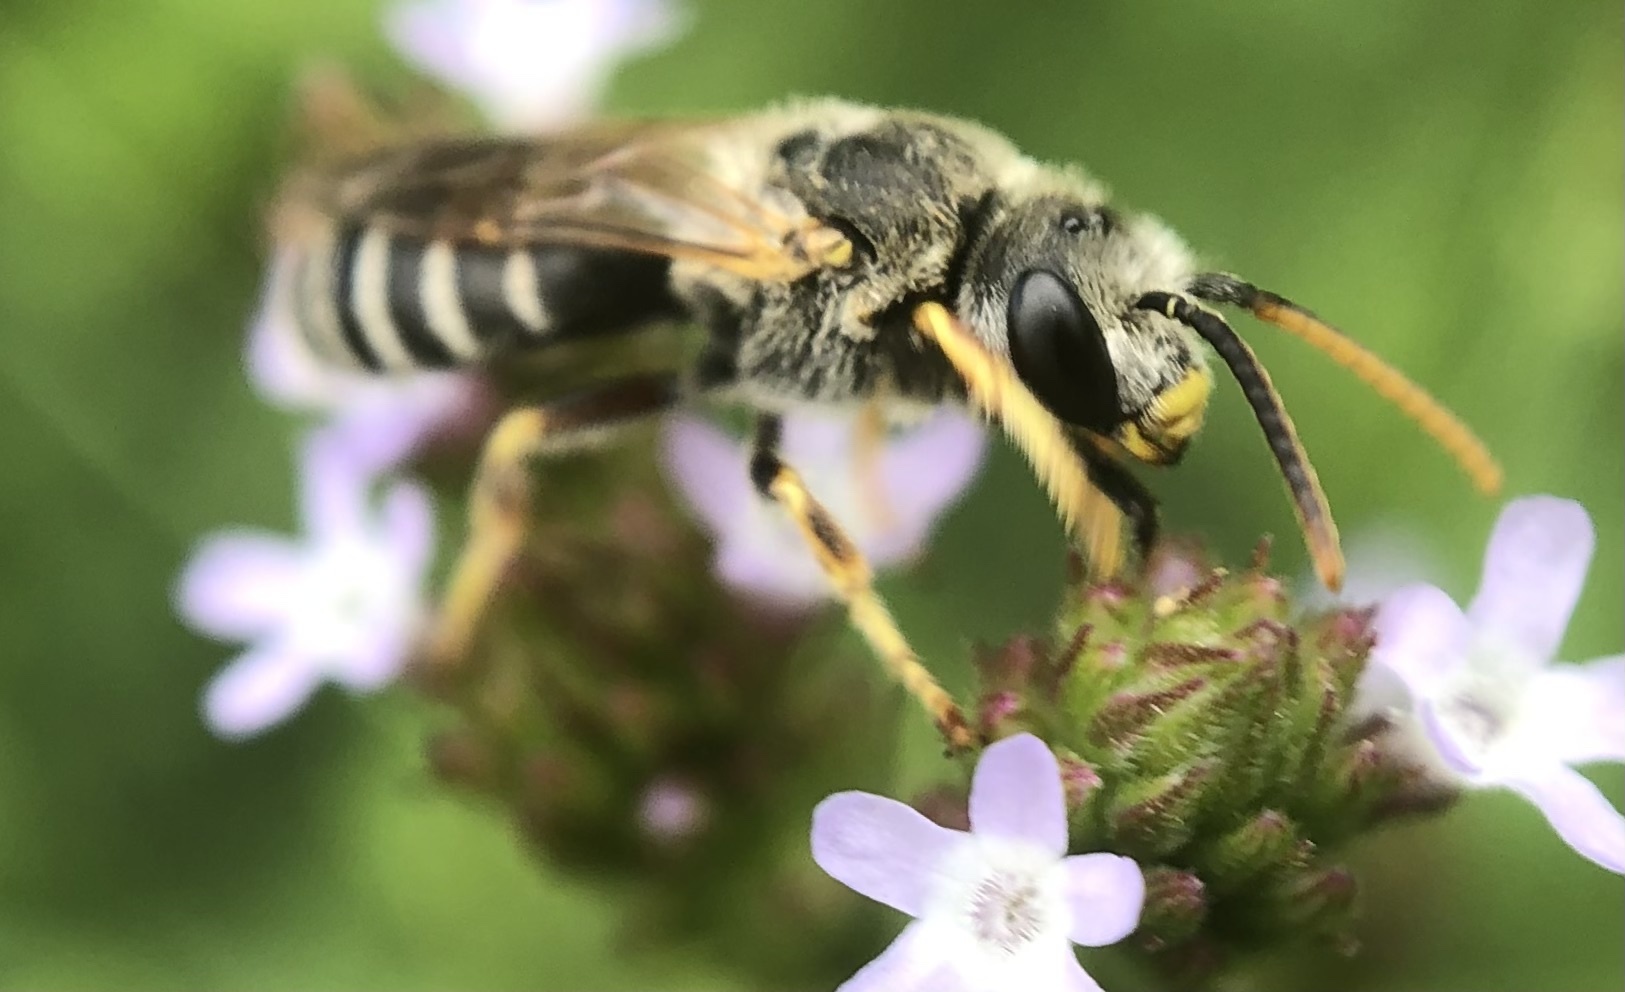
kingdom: Animalia
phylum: Arthropoda
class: Insecta
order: Hymenoptera
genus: Odontalictus
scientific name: Odontalictus
